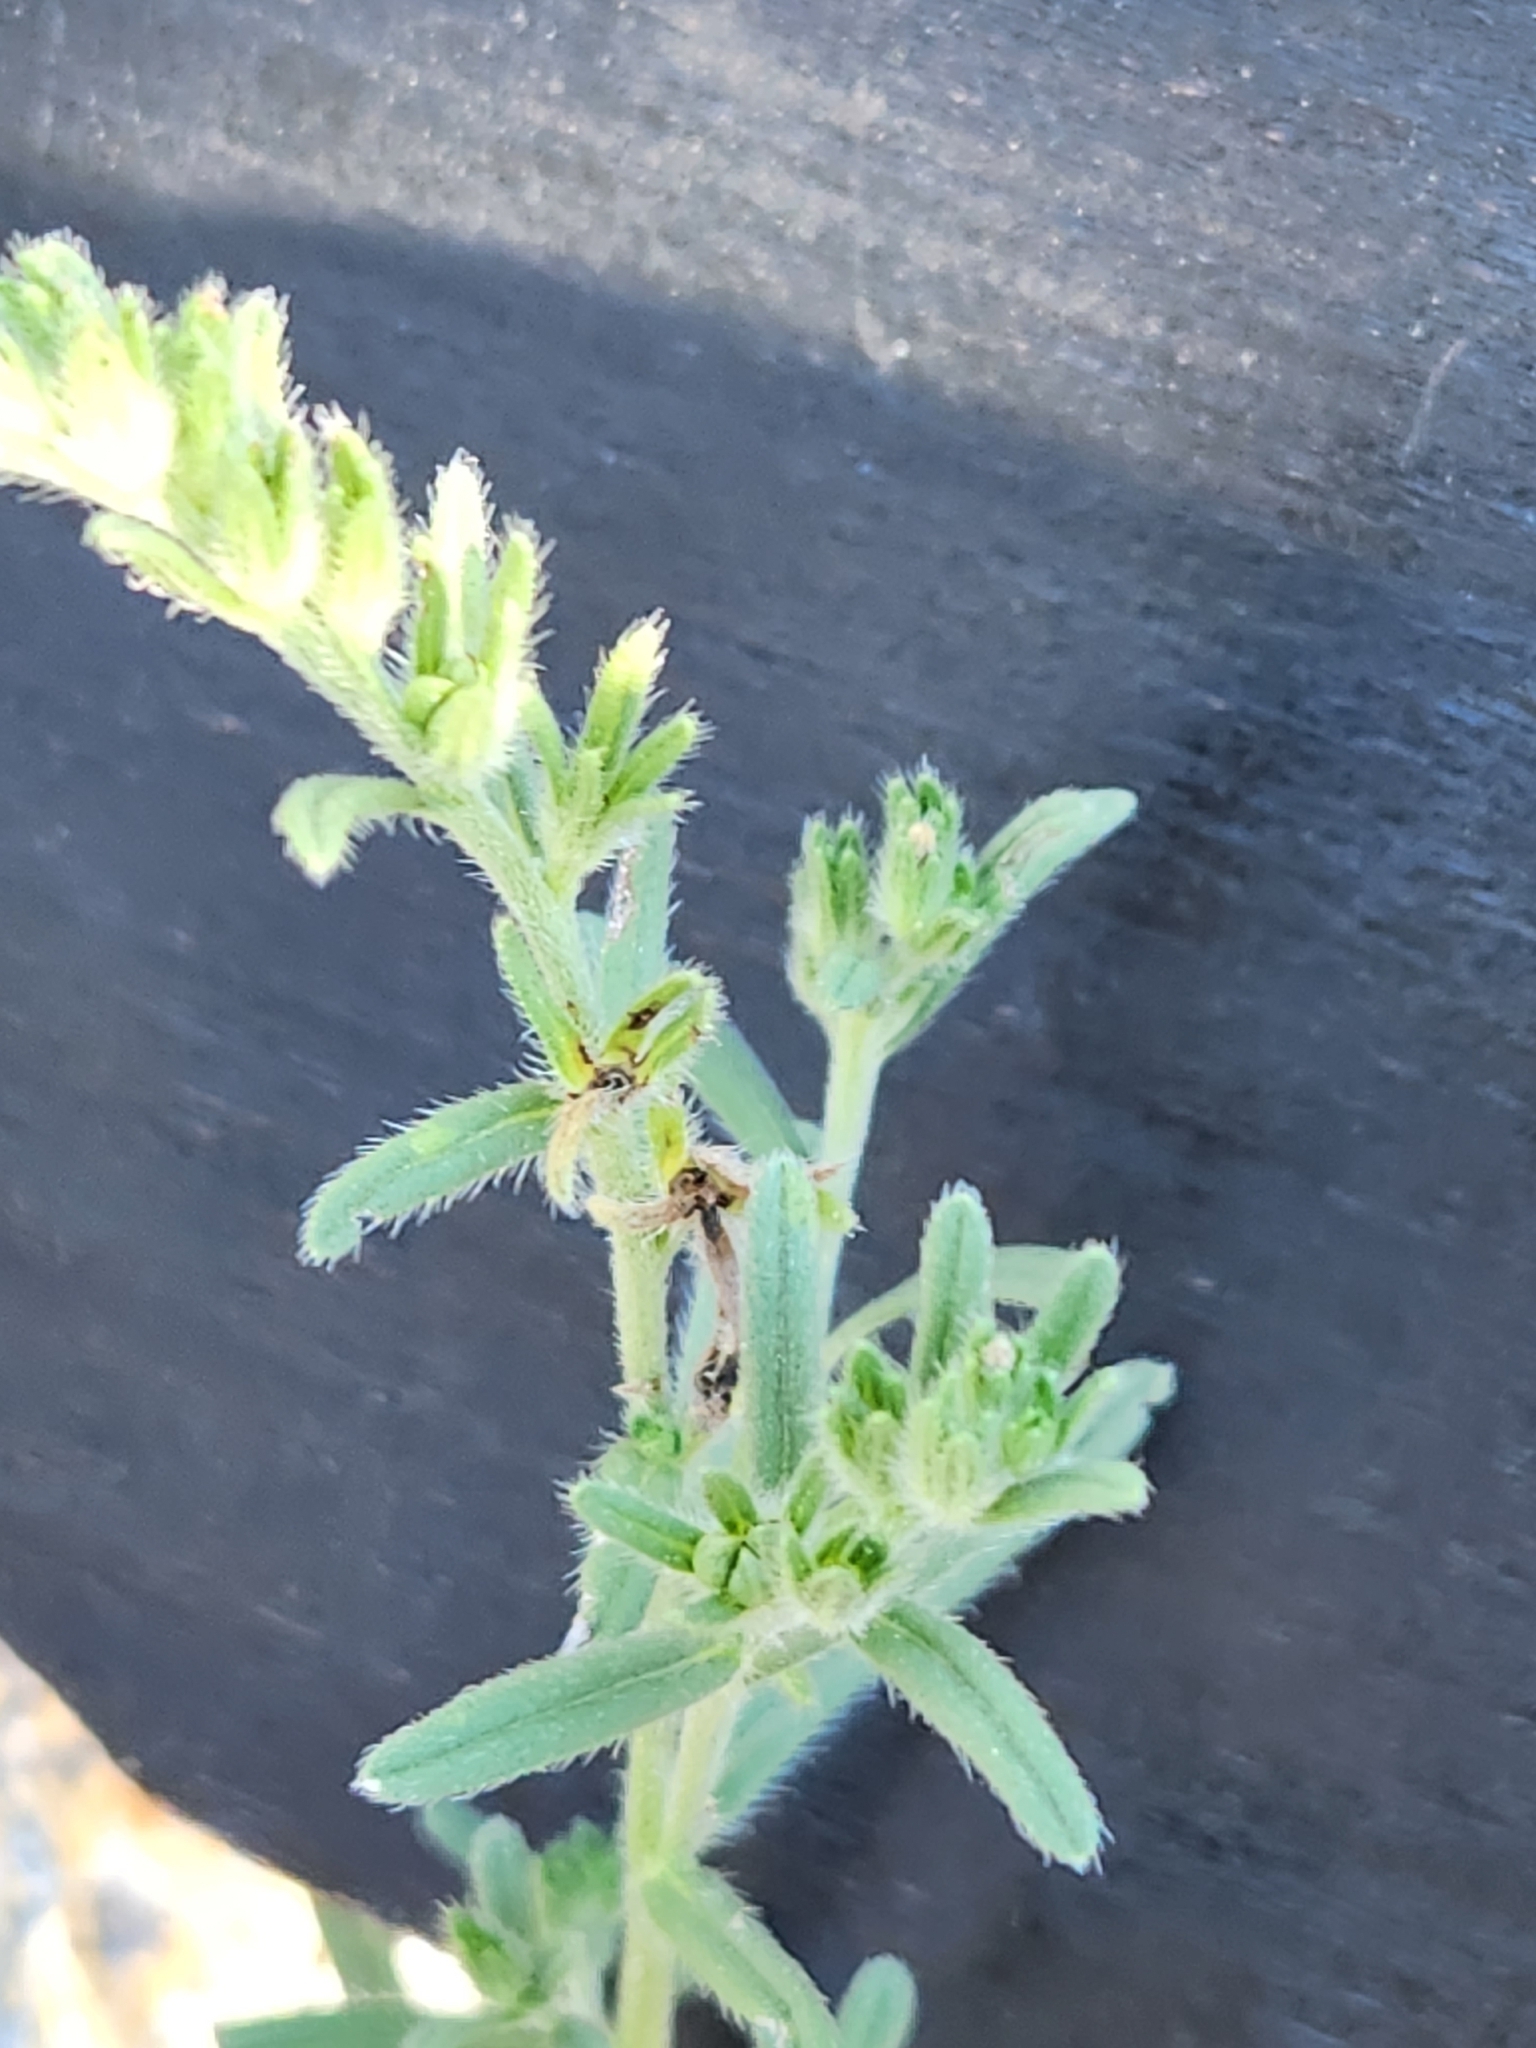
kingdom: Plantae
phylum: Tracheophyta
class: Magnoliopsida
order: Boraginales
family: Boraginaceae
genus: Lithospermum
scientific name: Lithospermum mirabile
